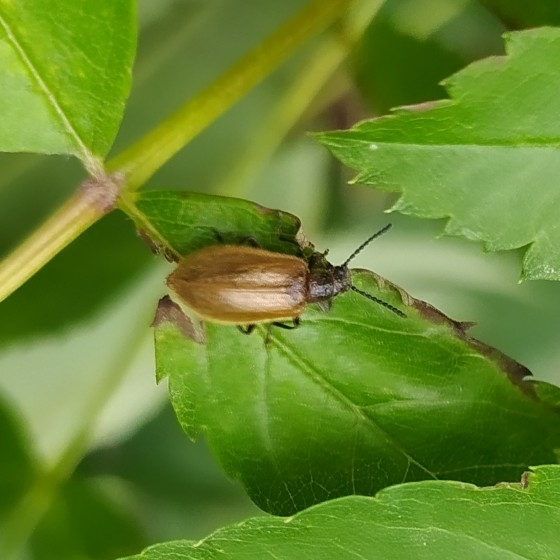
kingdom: Animalia
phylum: Arthropoda
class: Insecta
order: Coleoptera
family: Tenebrionidae
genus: Lagria
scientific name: Lagria hirta
